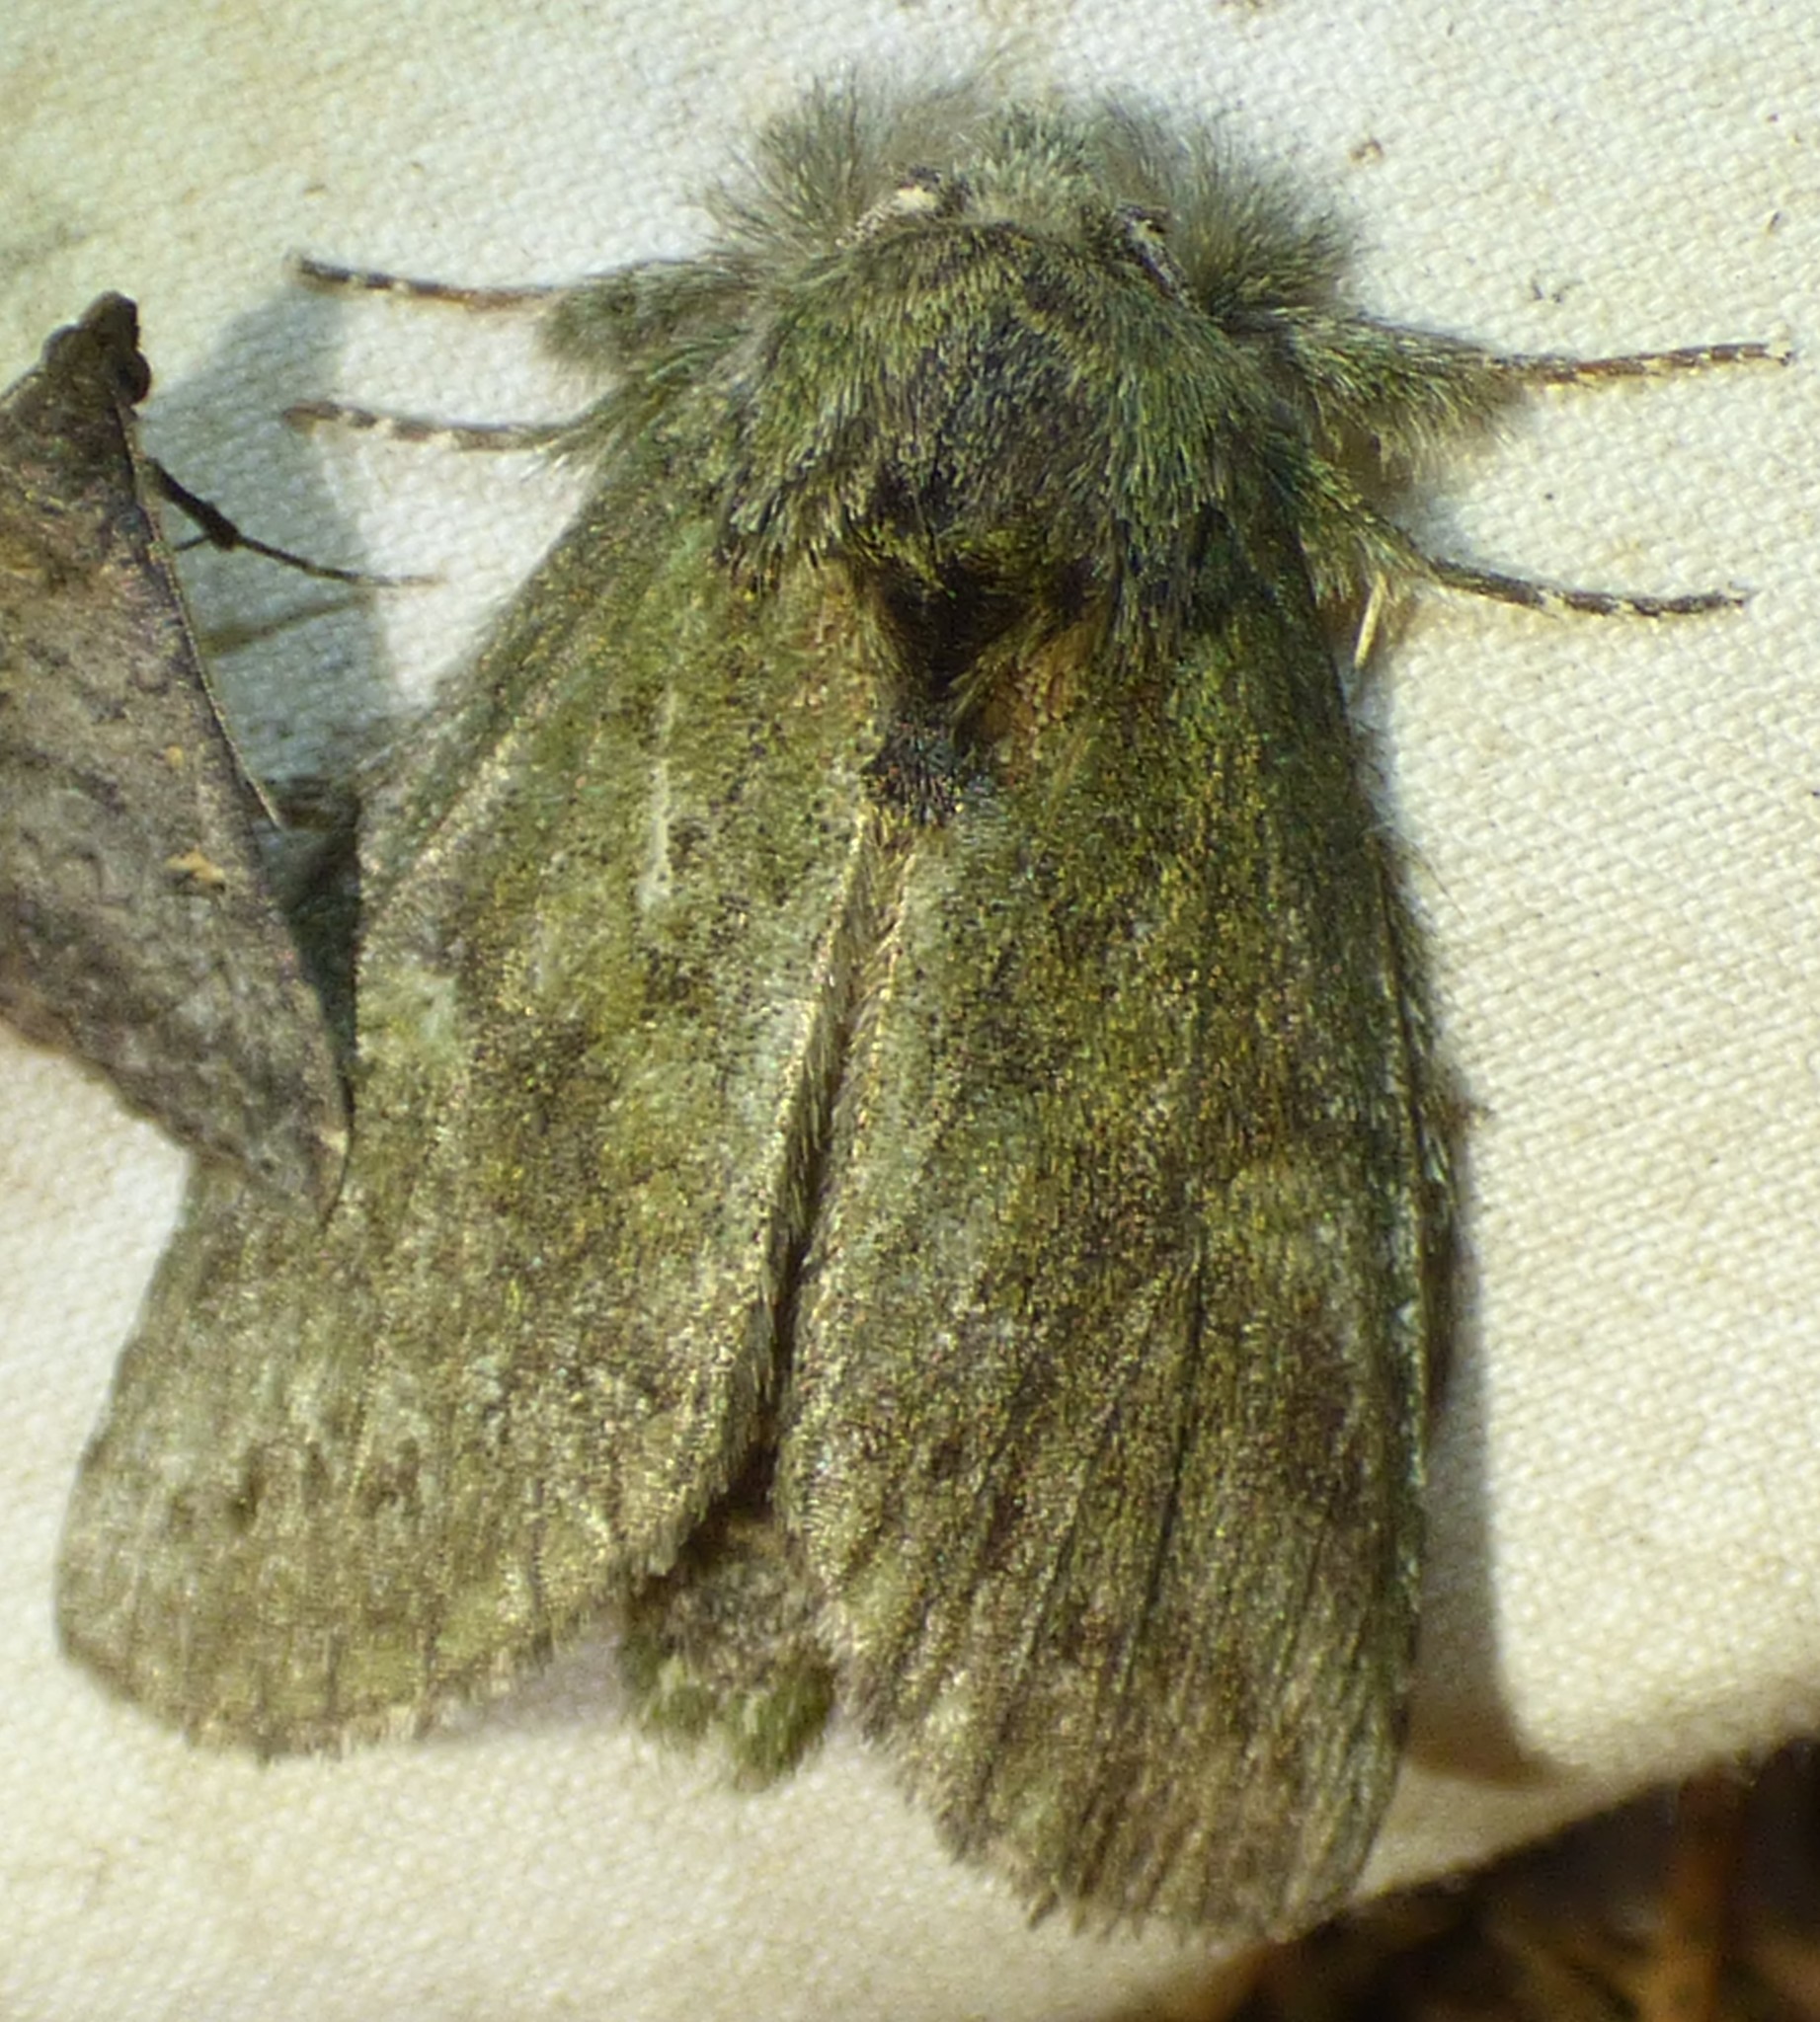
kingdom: Animalia
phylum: Arthropoda
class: Insecta
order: Lepidoptera
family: Notodontidae
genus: Disphragis
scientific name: Disphragis Cecrita guttivitta
